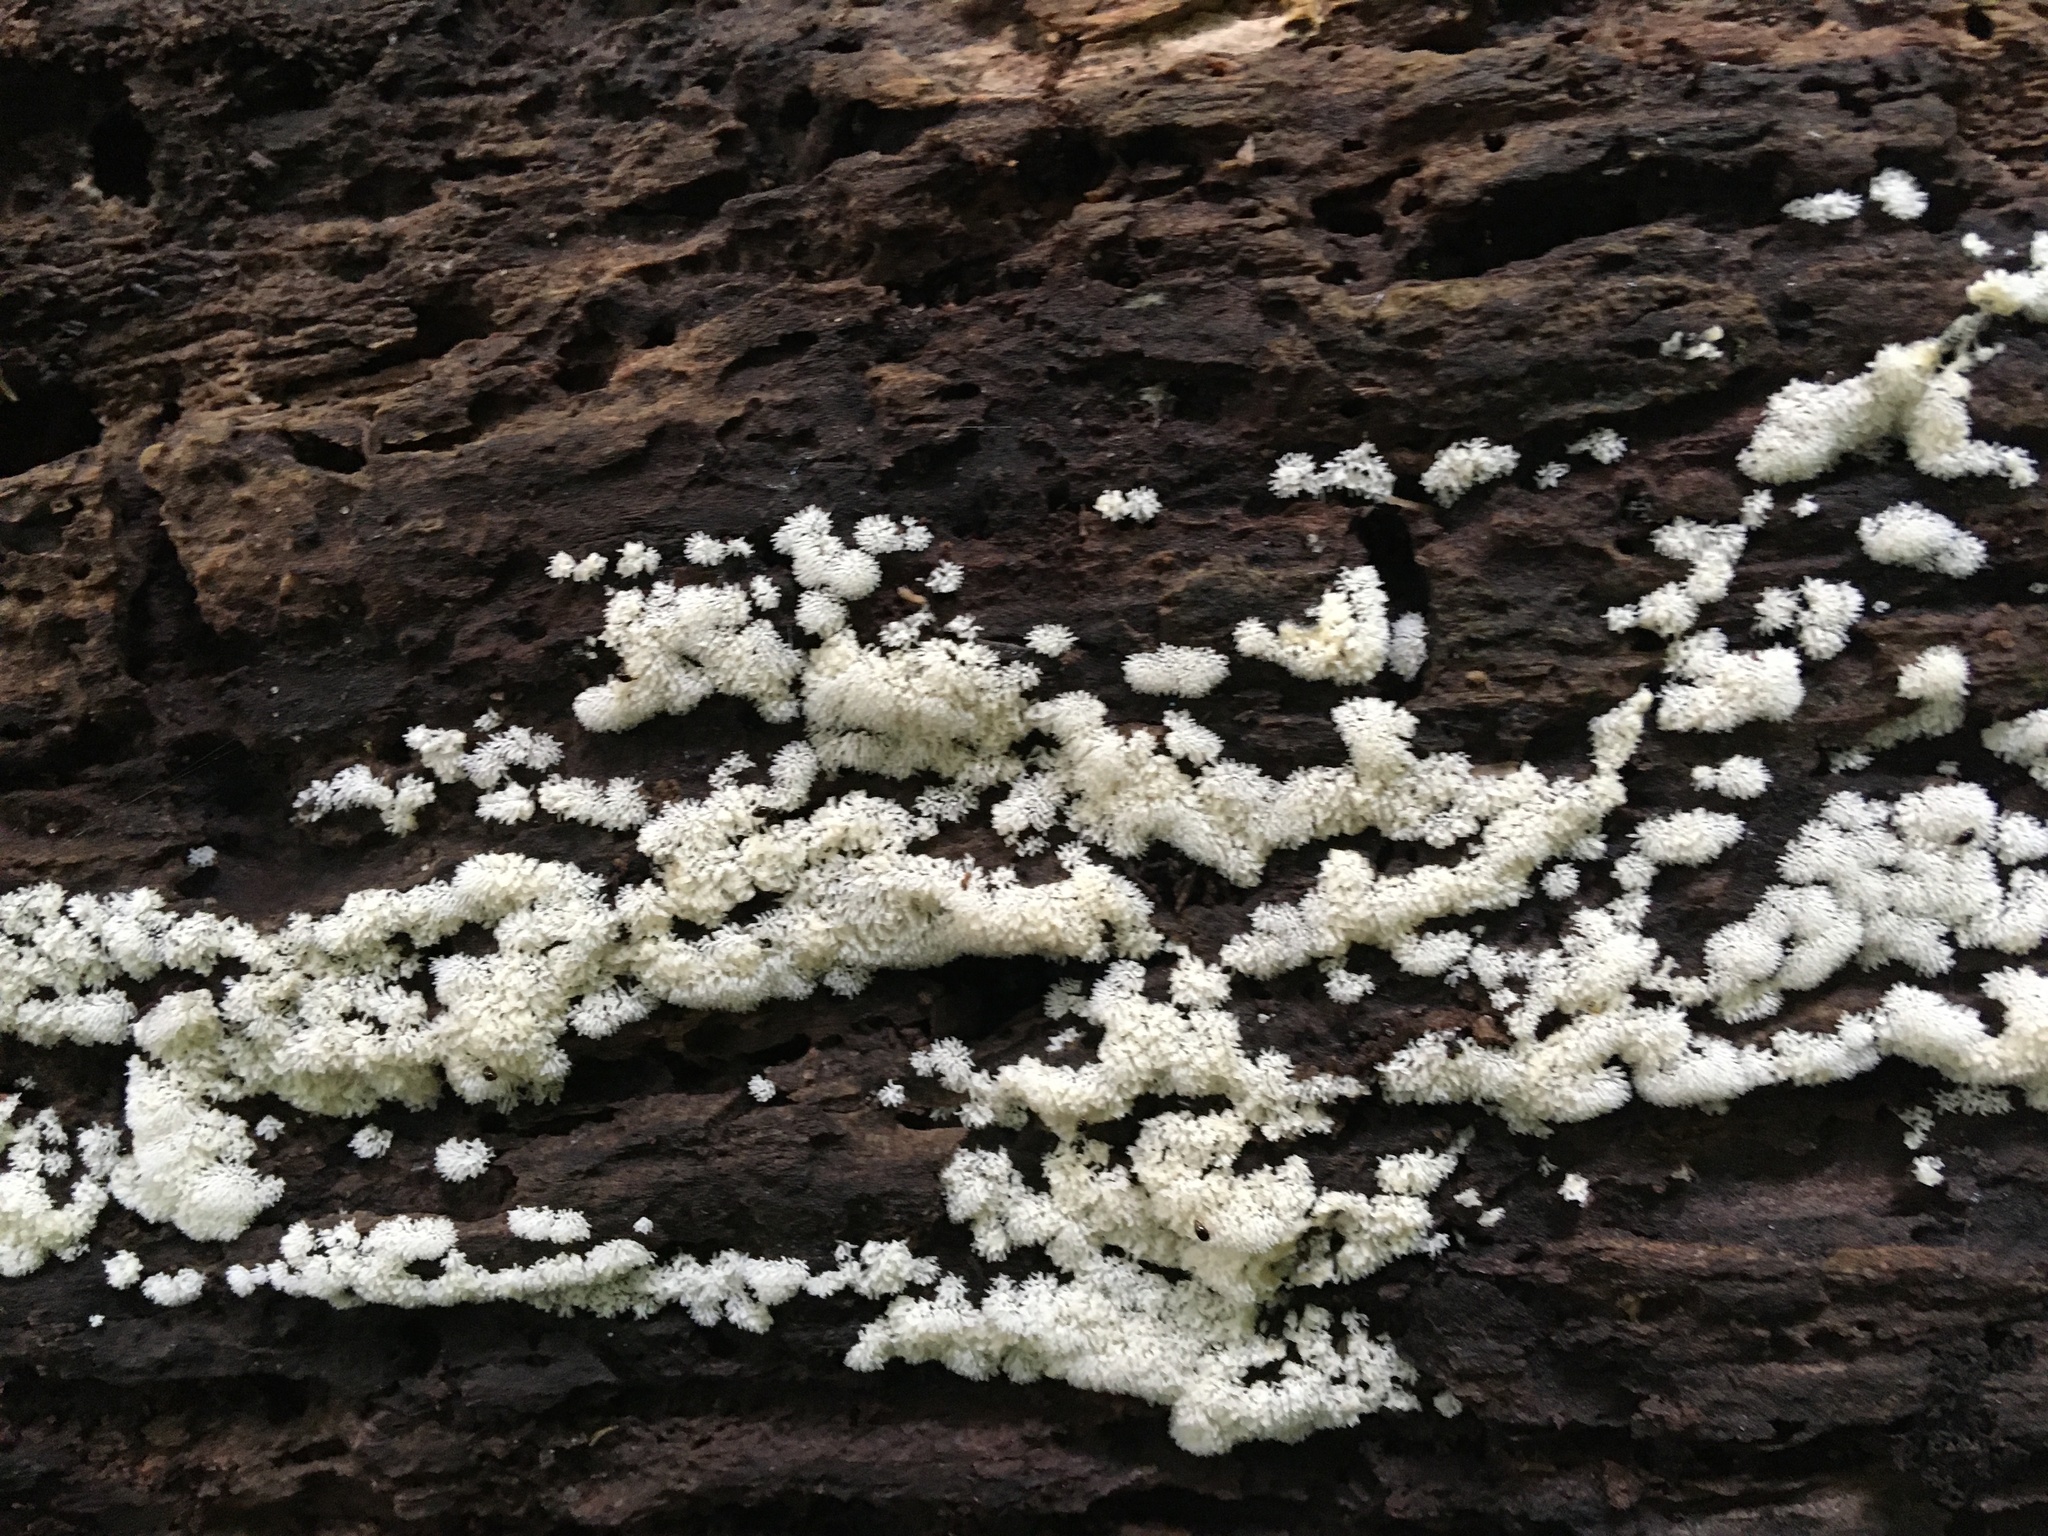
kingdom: Protozoa
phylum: Mycetozoa
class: Protosteliomycetes
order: Ceratiomyxales
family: Ceratiomyxaceae
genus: Ceratiomyxa
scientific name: Ceratiomyxa fruticulosa
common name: Honeycomb coral slime mold
